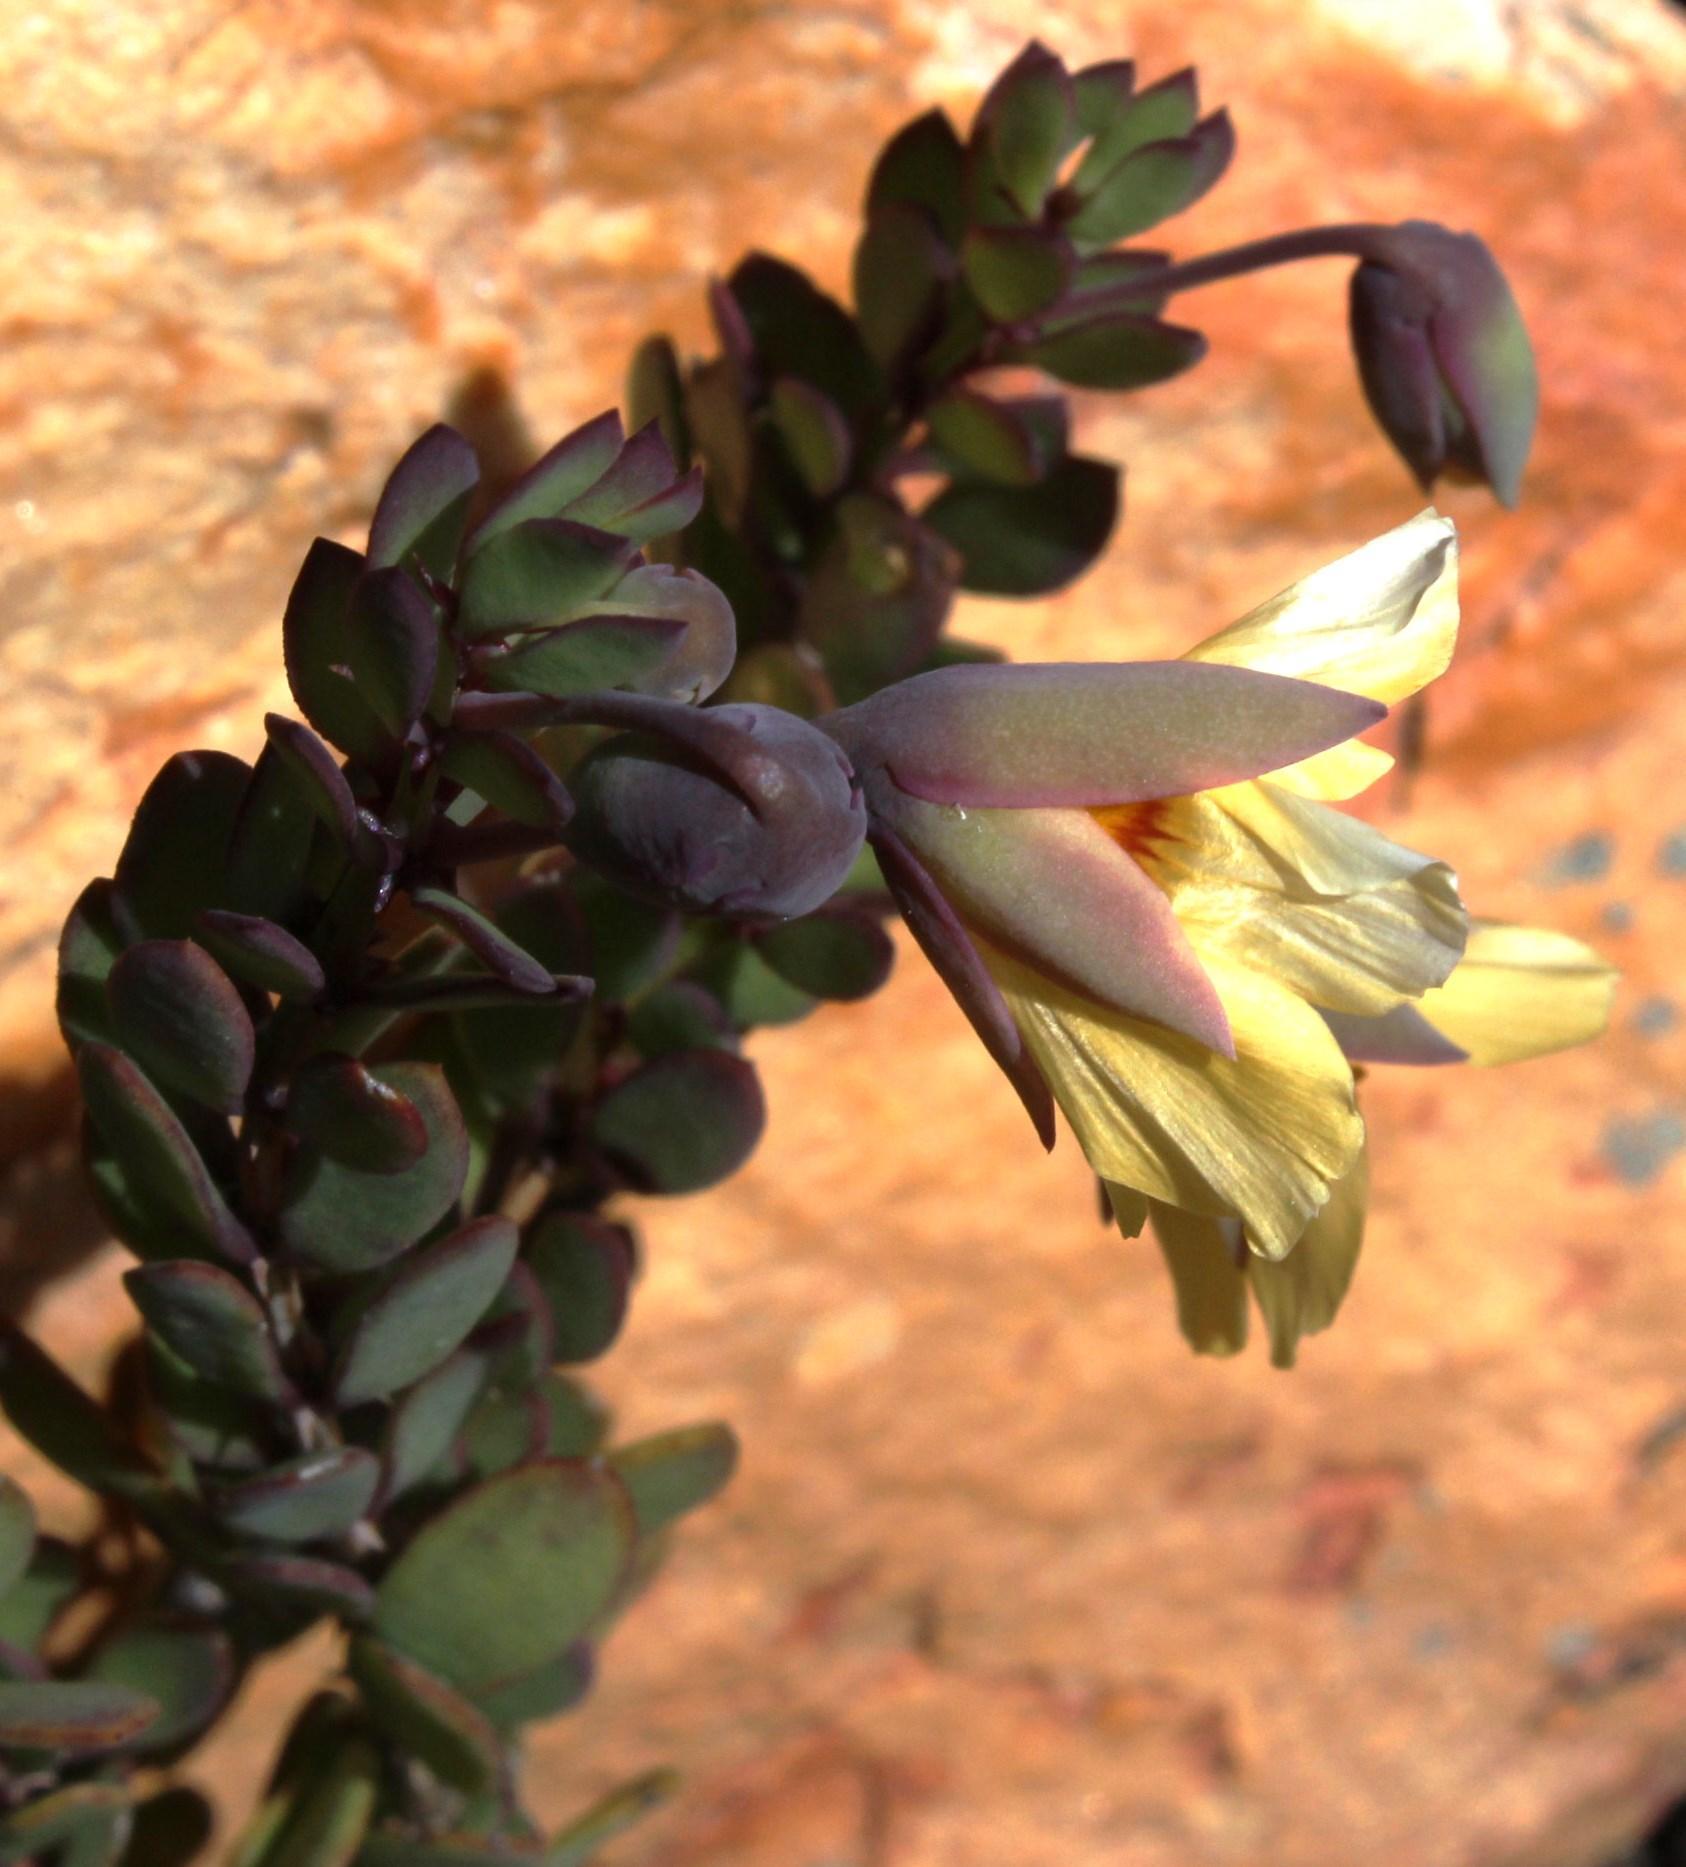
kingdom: Plantae
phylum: Tracheophyta
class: Magnoliopsida
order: Zygophyllales
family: Zygophyllaceae
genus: Roepera
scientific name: Roepera fulva
